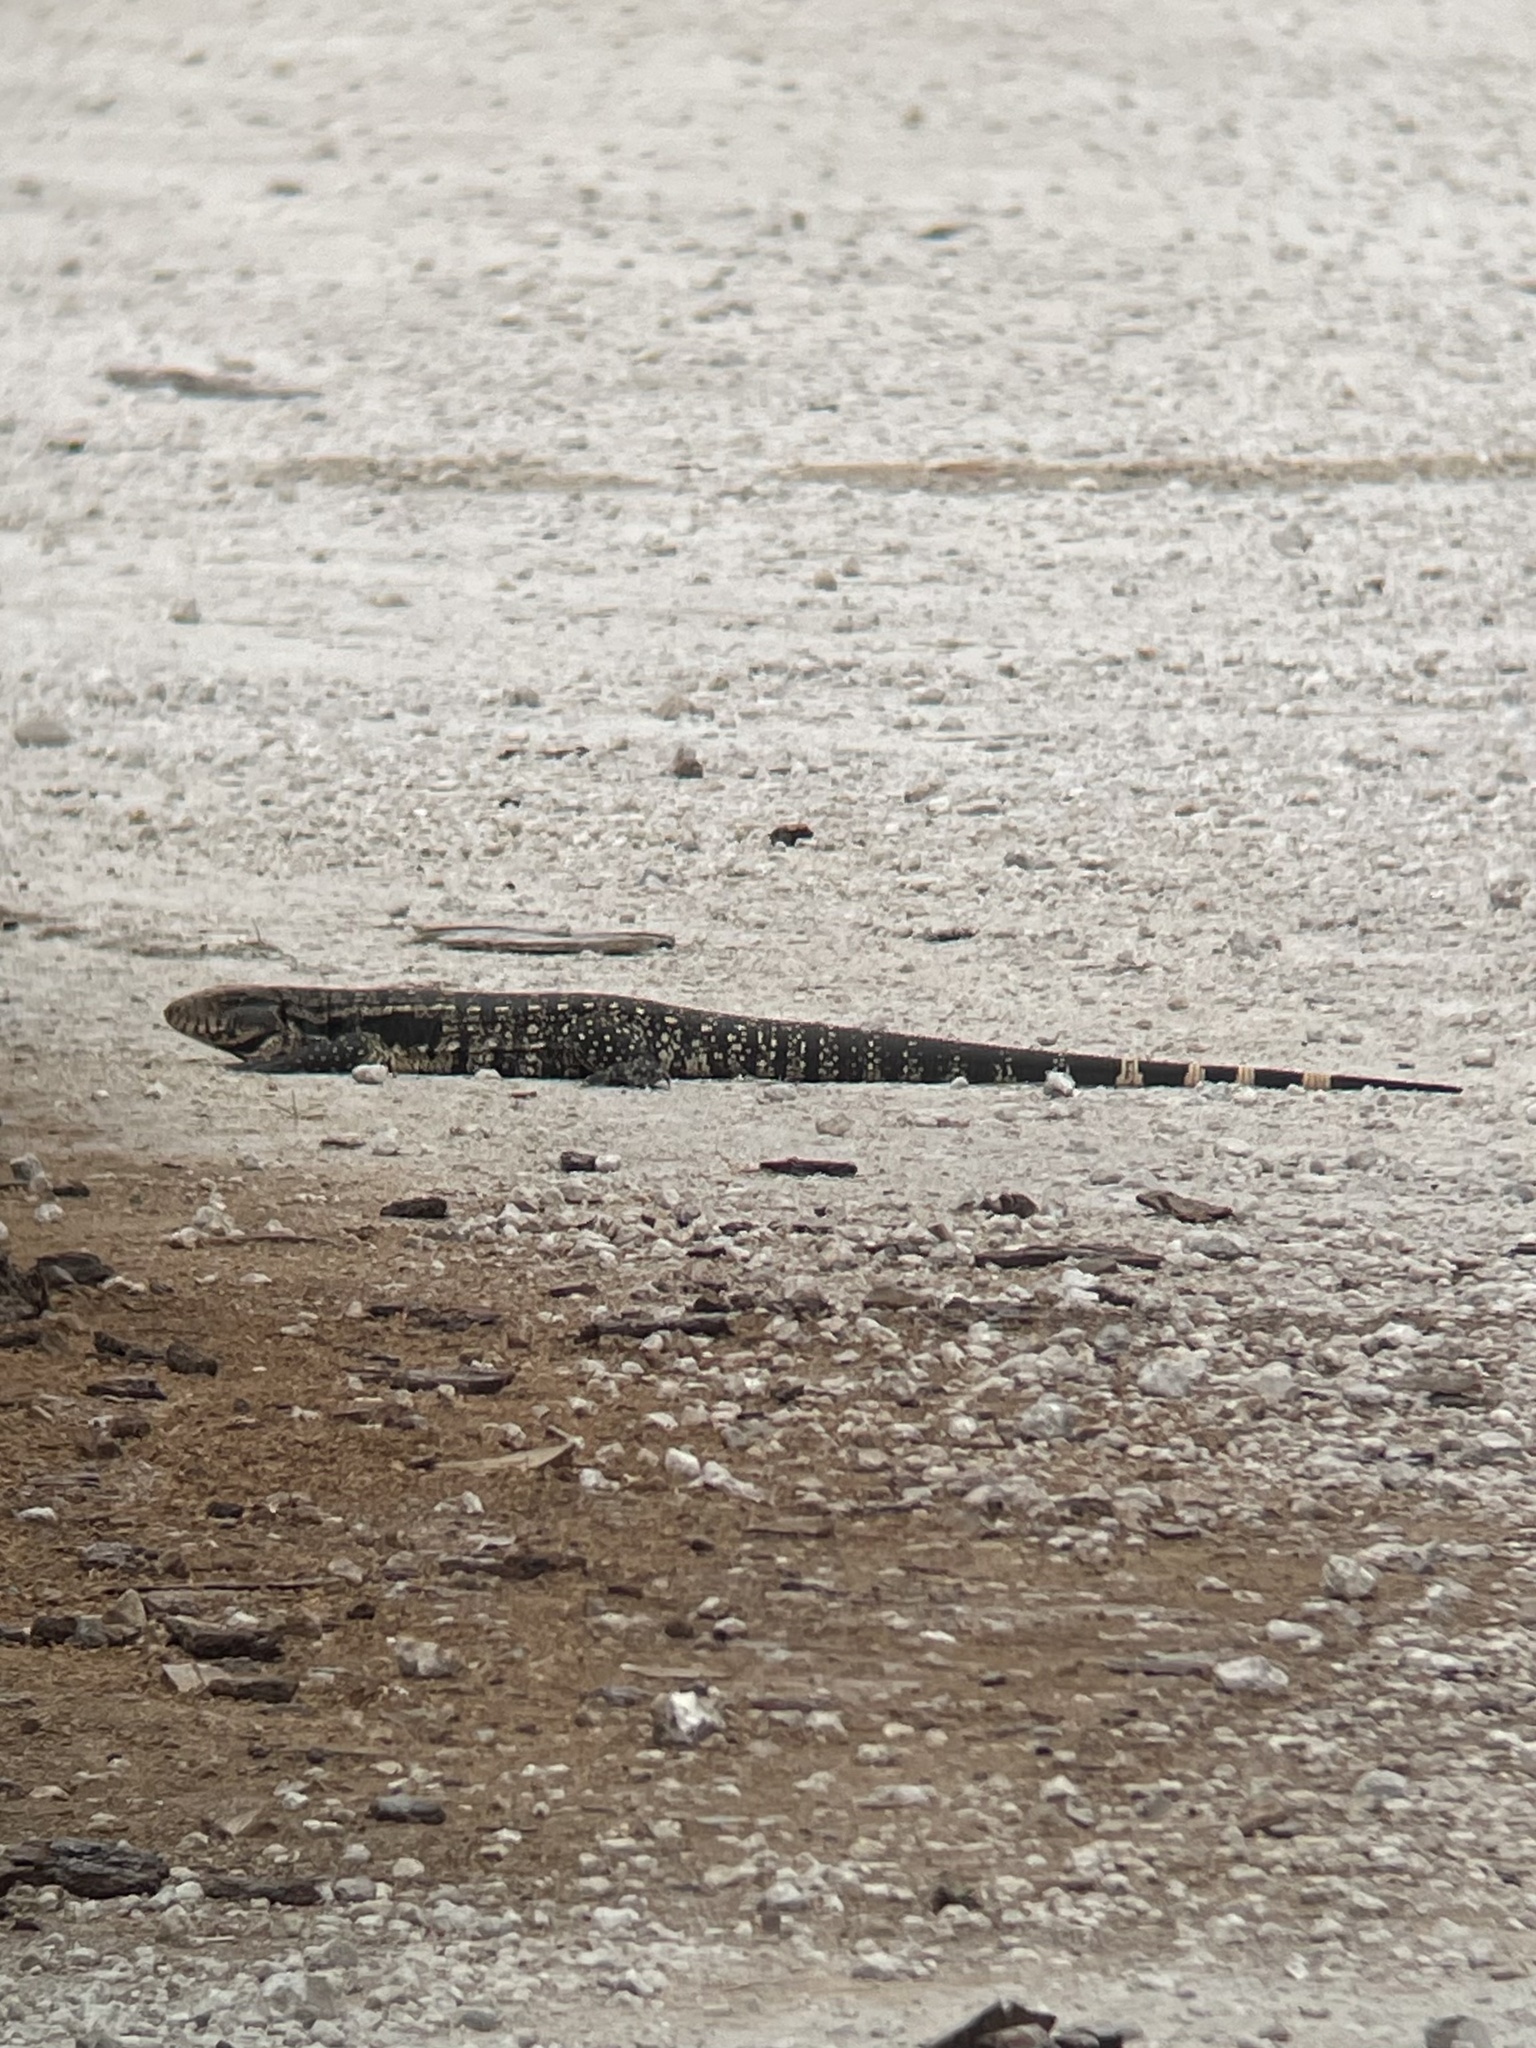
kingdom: Animalia
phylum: Chordata
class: Squamata
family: Teiidae
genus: Salvator
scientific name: Salvator merianae
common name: Argentine black and white tegu
